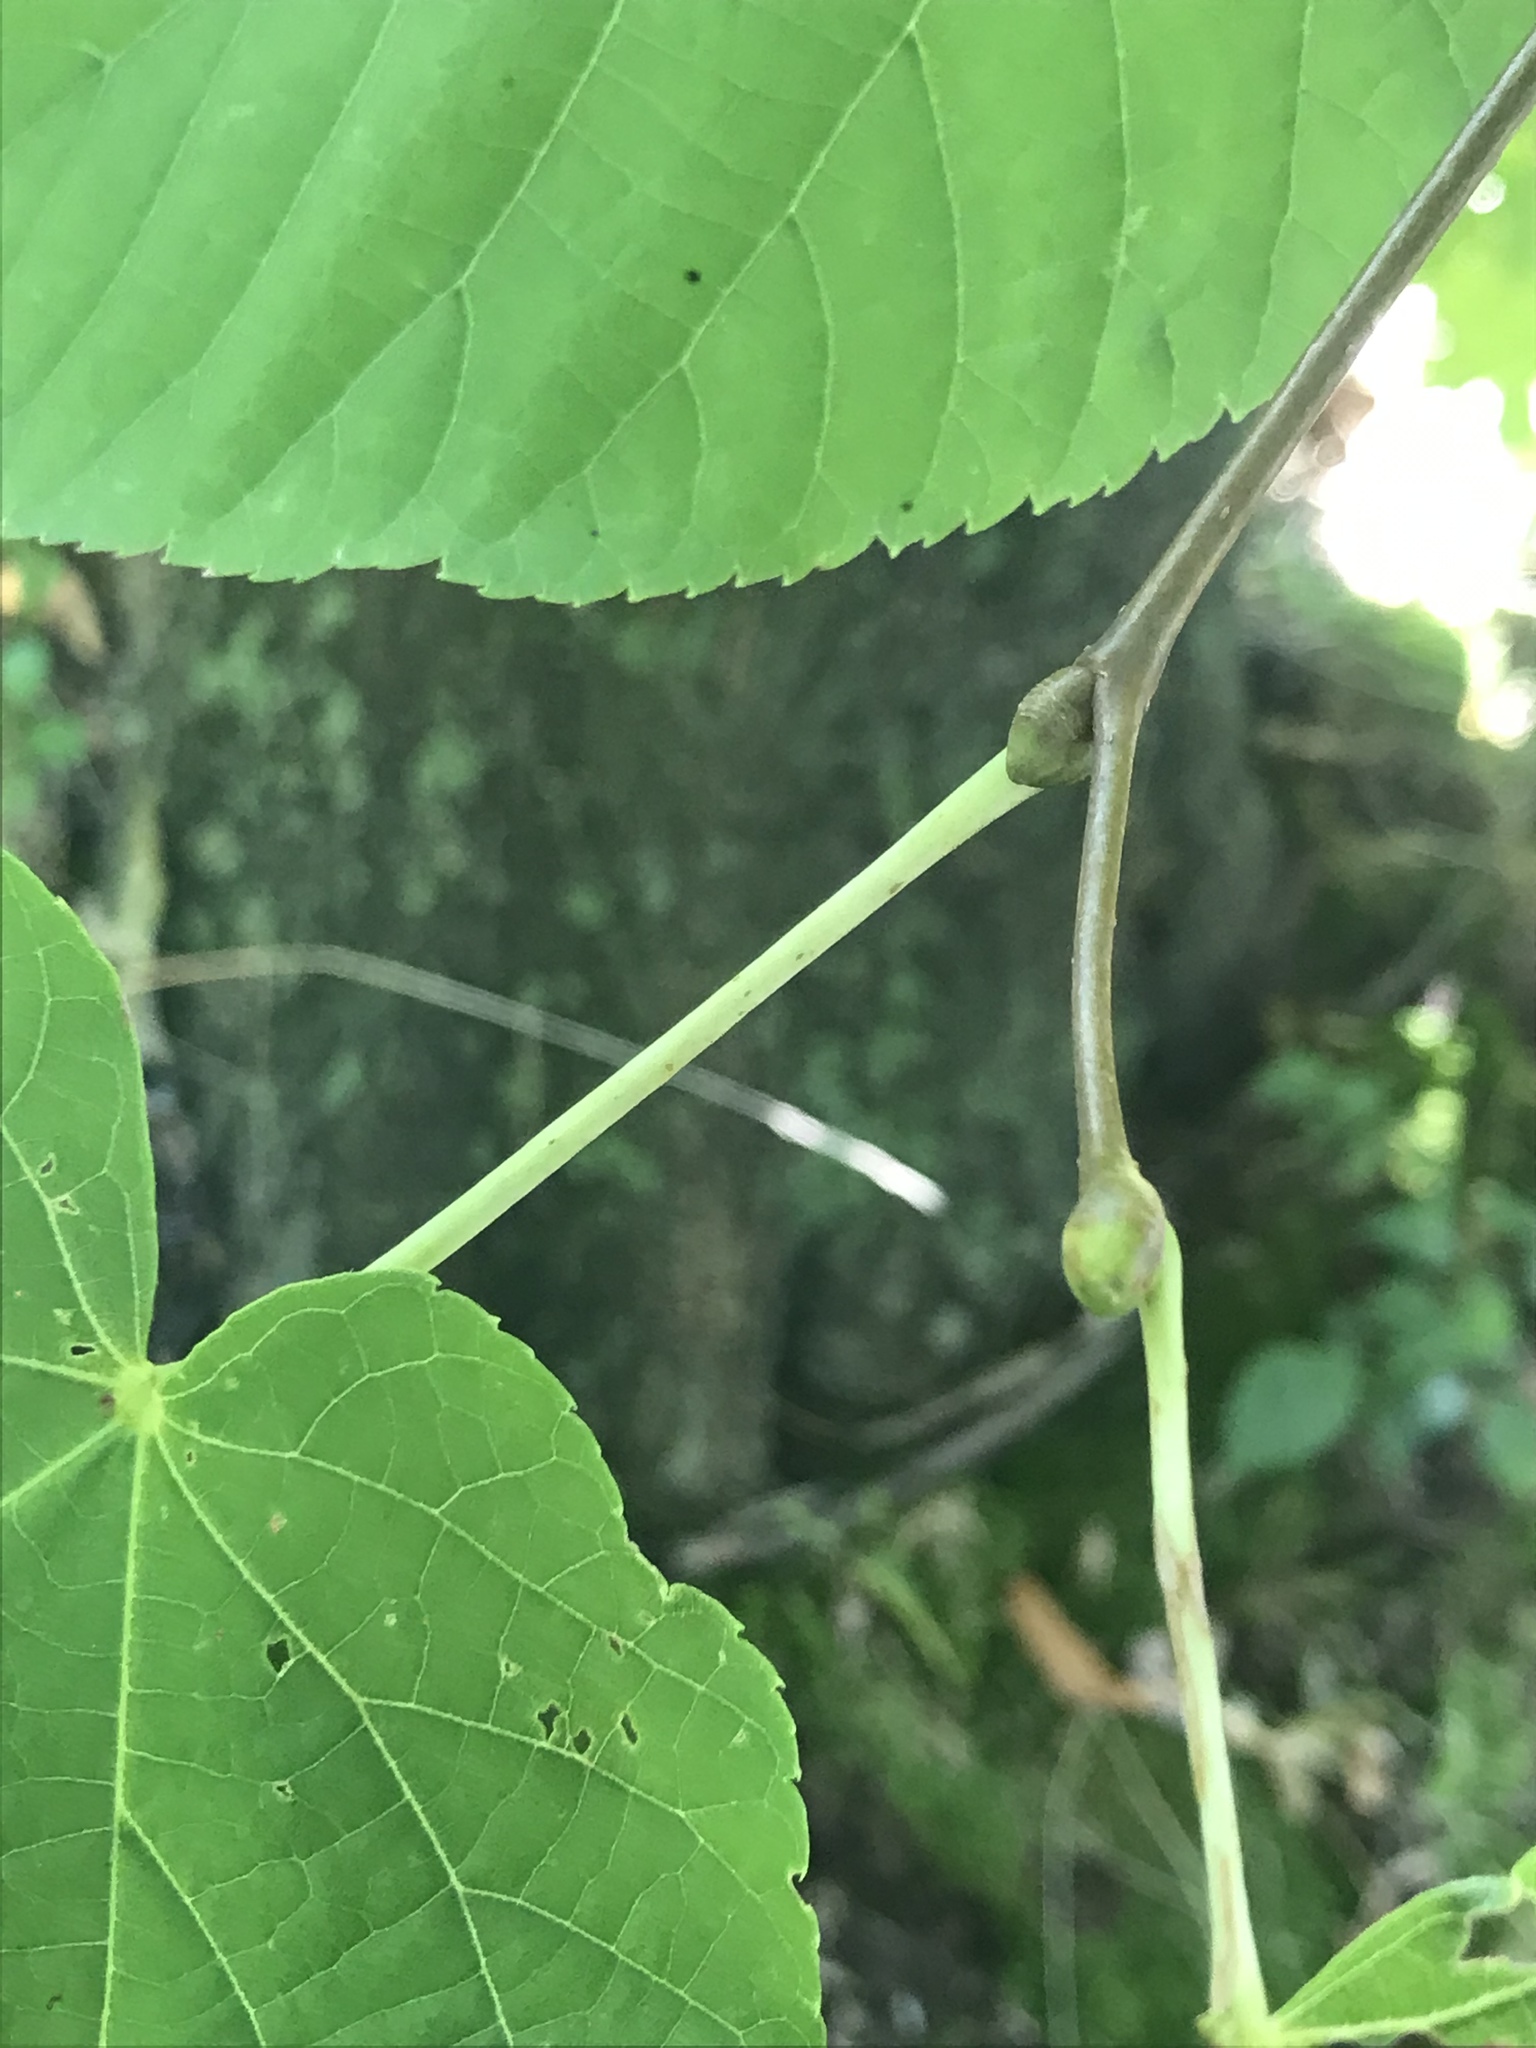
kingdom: Plantae
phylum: Tracheophyta
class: Magnoliopsida
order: Malvales
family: Malvaceae
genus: Tilia
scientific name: Tilia americana
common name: Basswood
